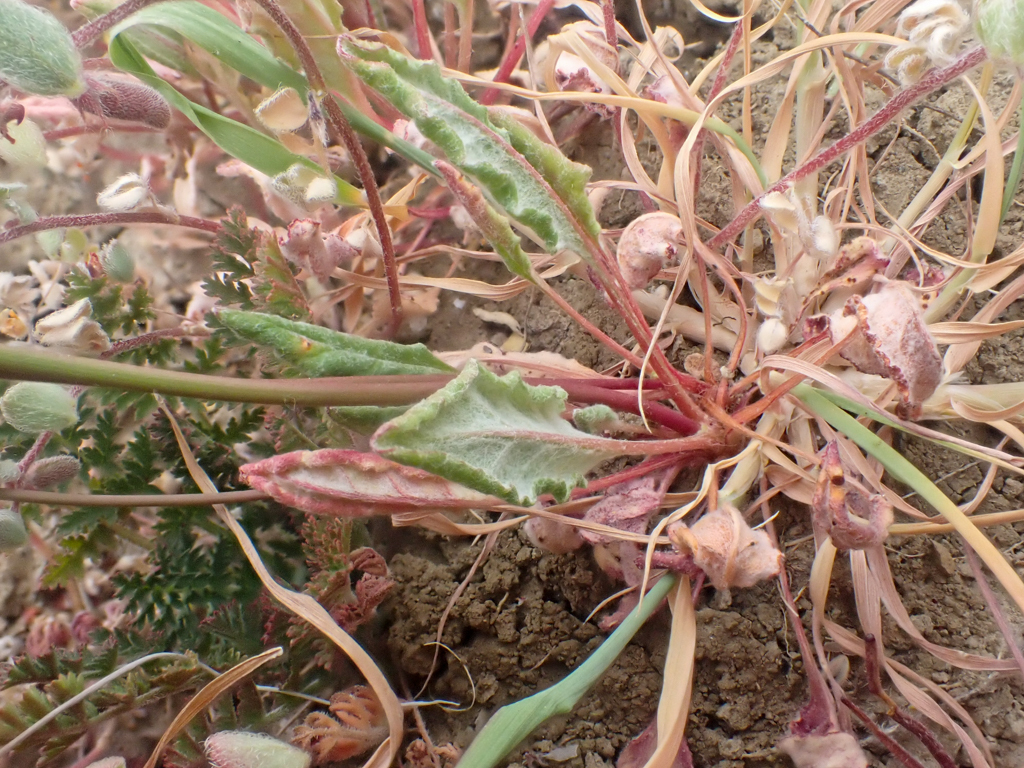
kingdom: Plantae
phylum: Tracheophyta
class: Magnoliopsida
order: Caryophyllales
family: Polygonaceae
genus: Eriogonum
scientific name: Eriogonum argillosum
